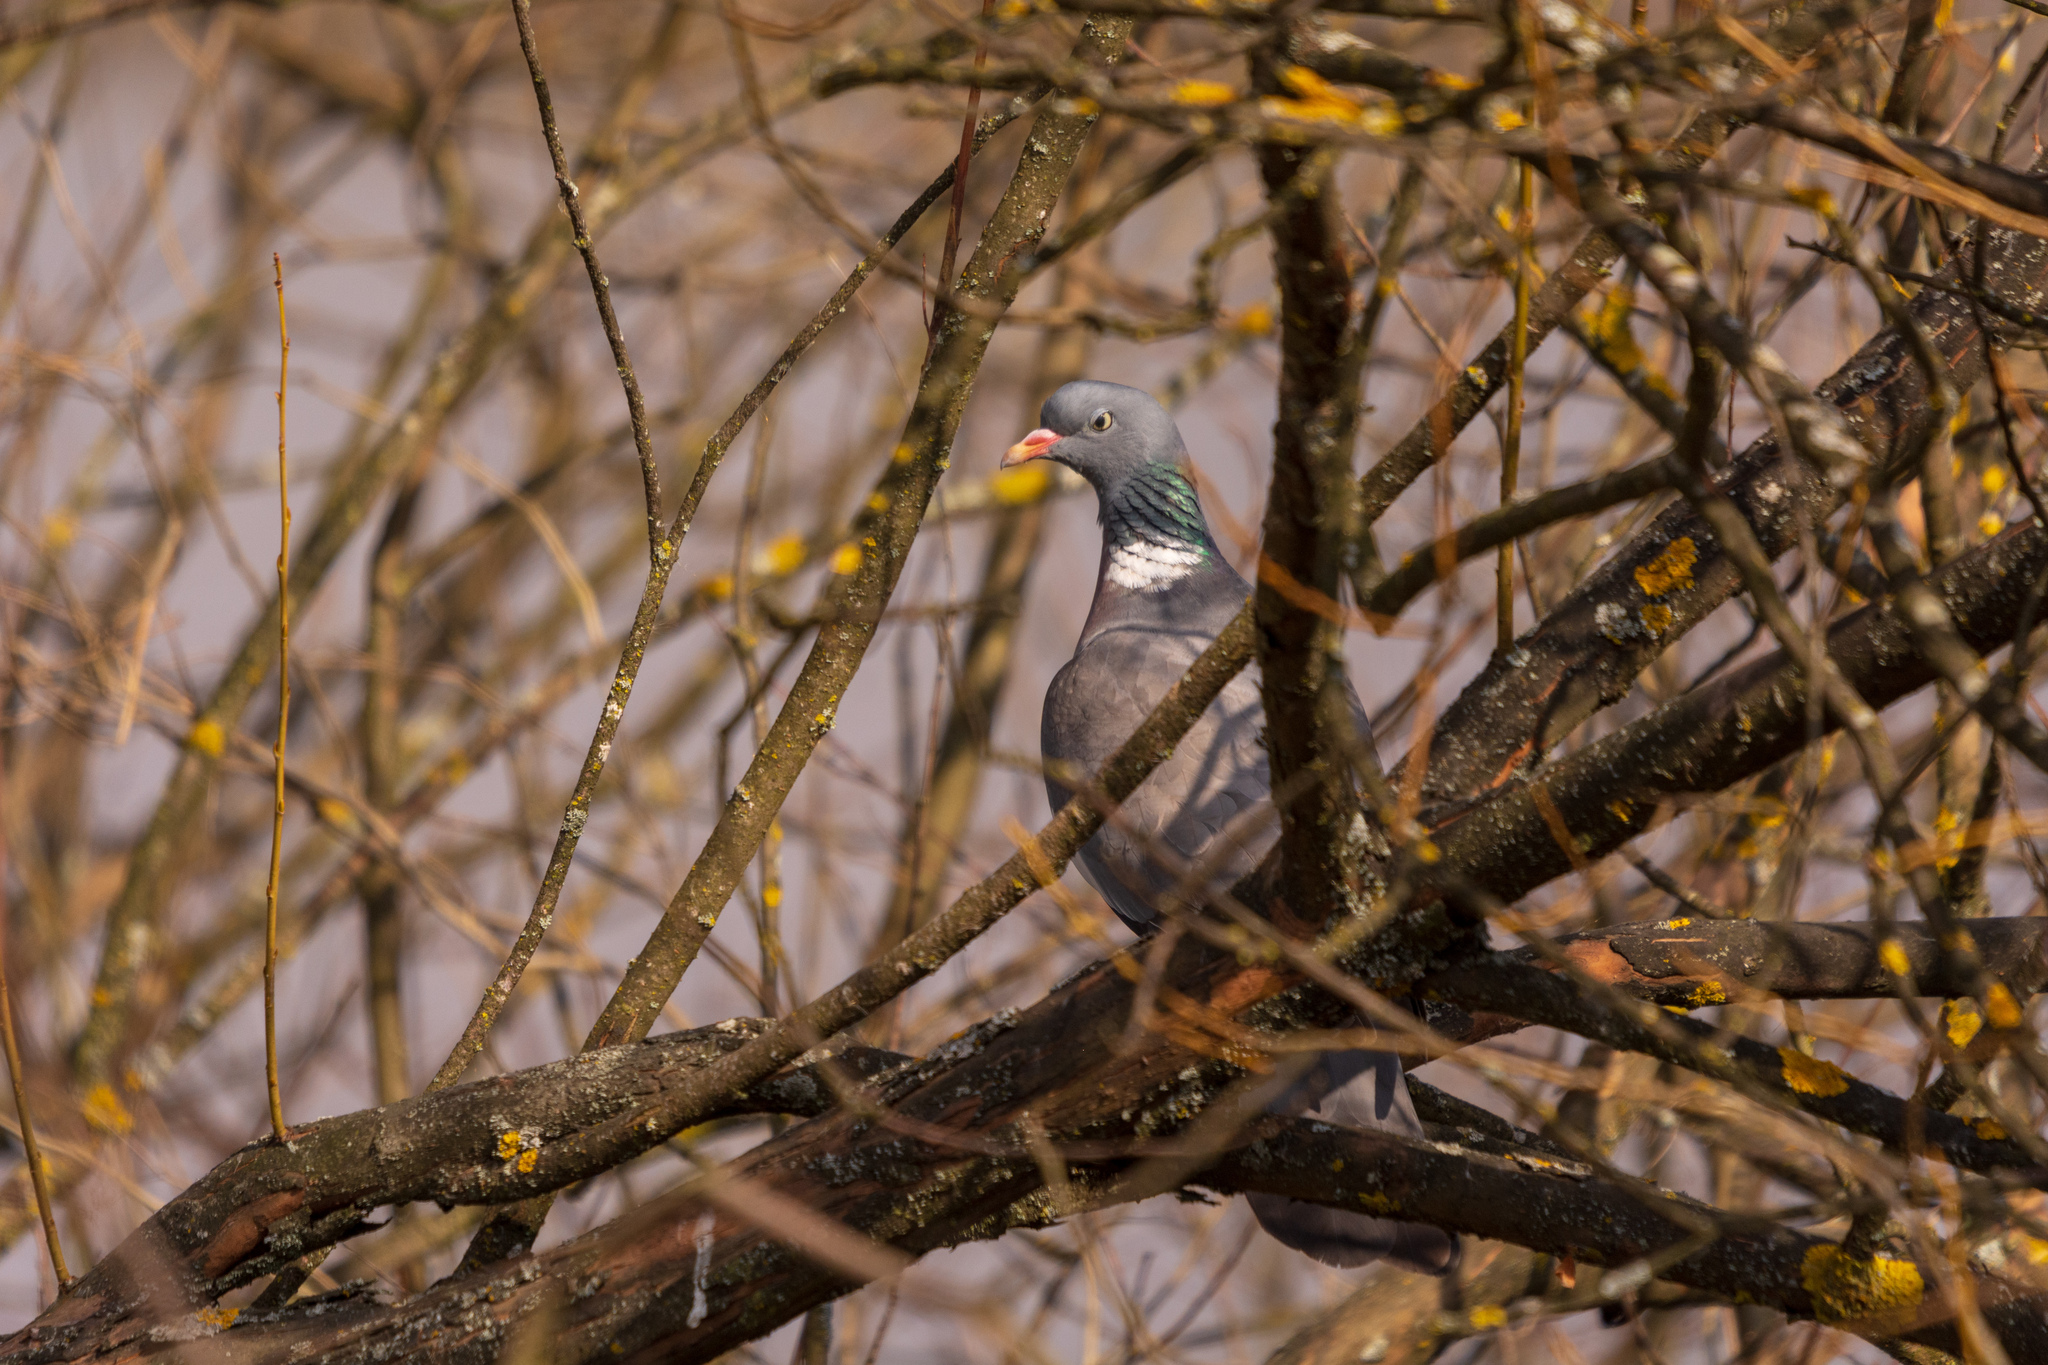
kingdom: Animalia
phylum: Chordata
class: Aves
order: Columbiformes
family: Columbidae
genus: Columba
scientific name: Columba palumbus
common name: Common wood pigeon
